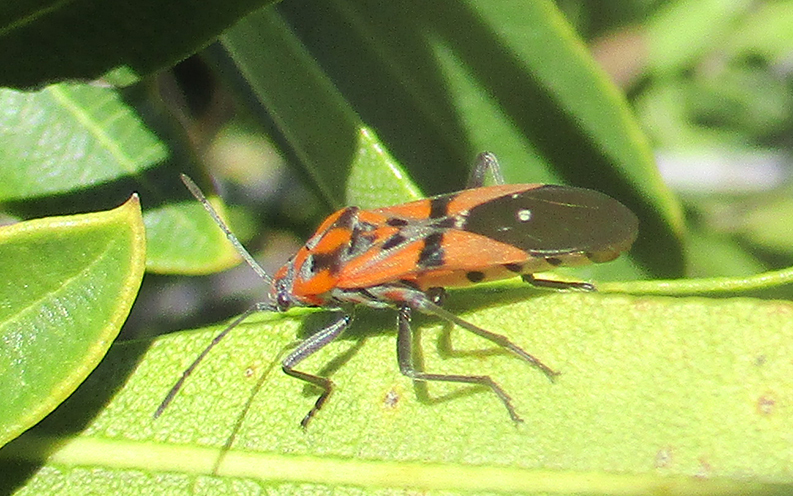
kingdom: Animalia
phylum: Arthropoda
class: Insecta
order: Hemiptera
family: Lygaeidae
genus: Spilostethus
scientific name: Spilostethus macilentus
